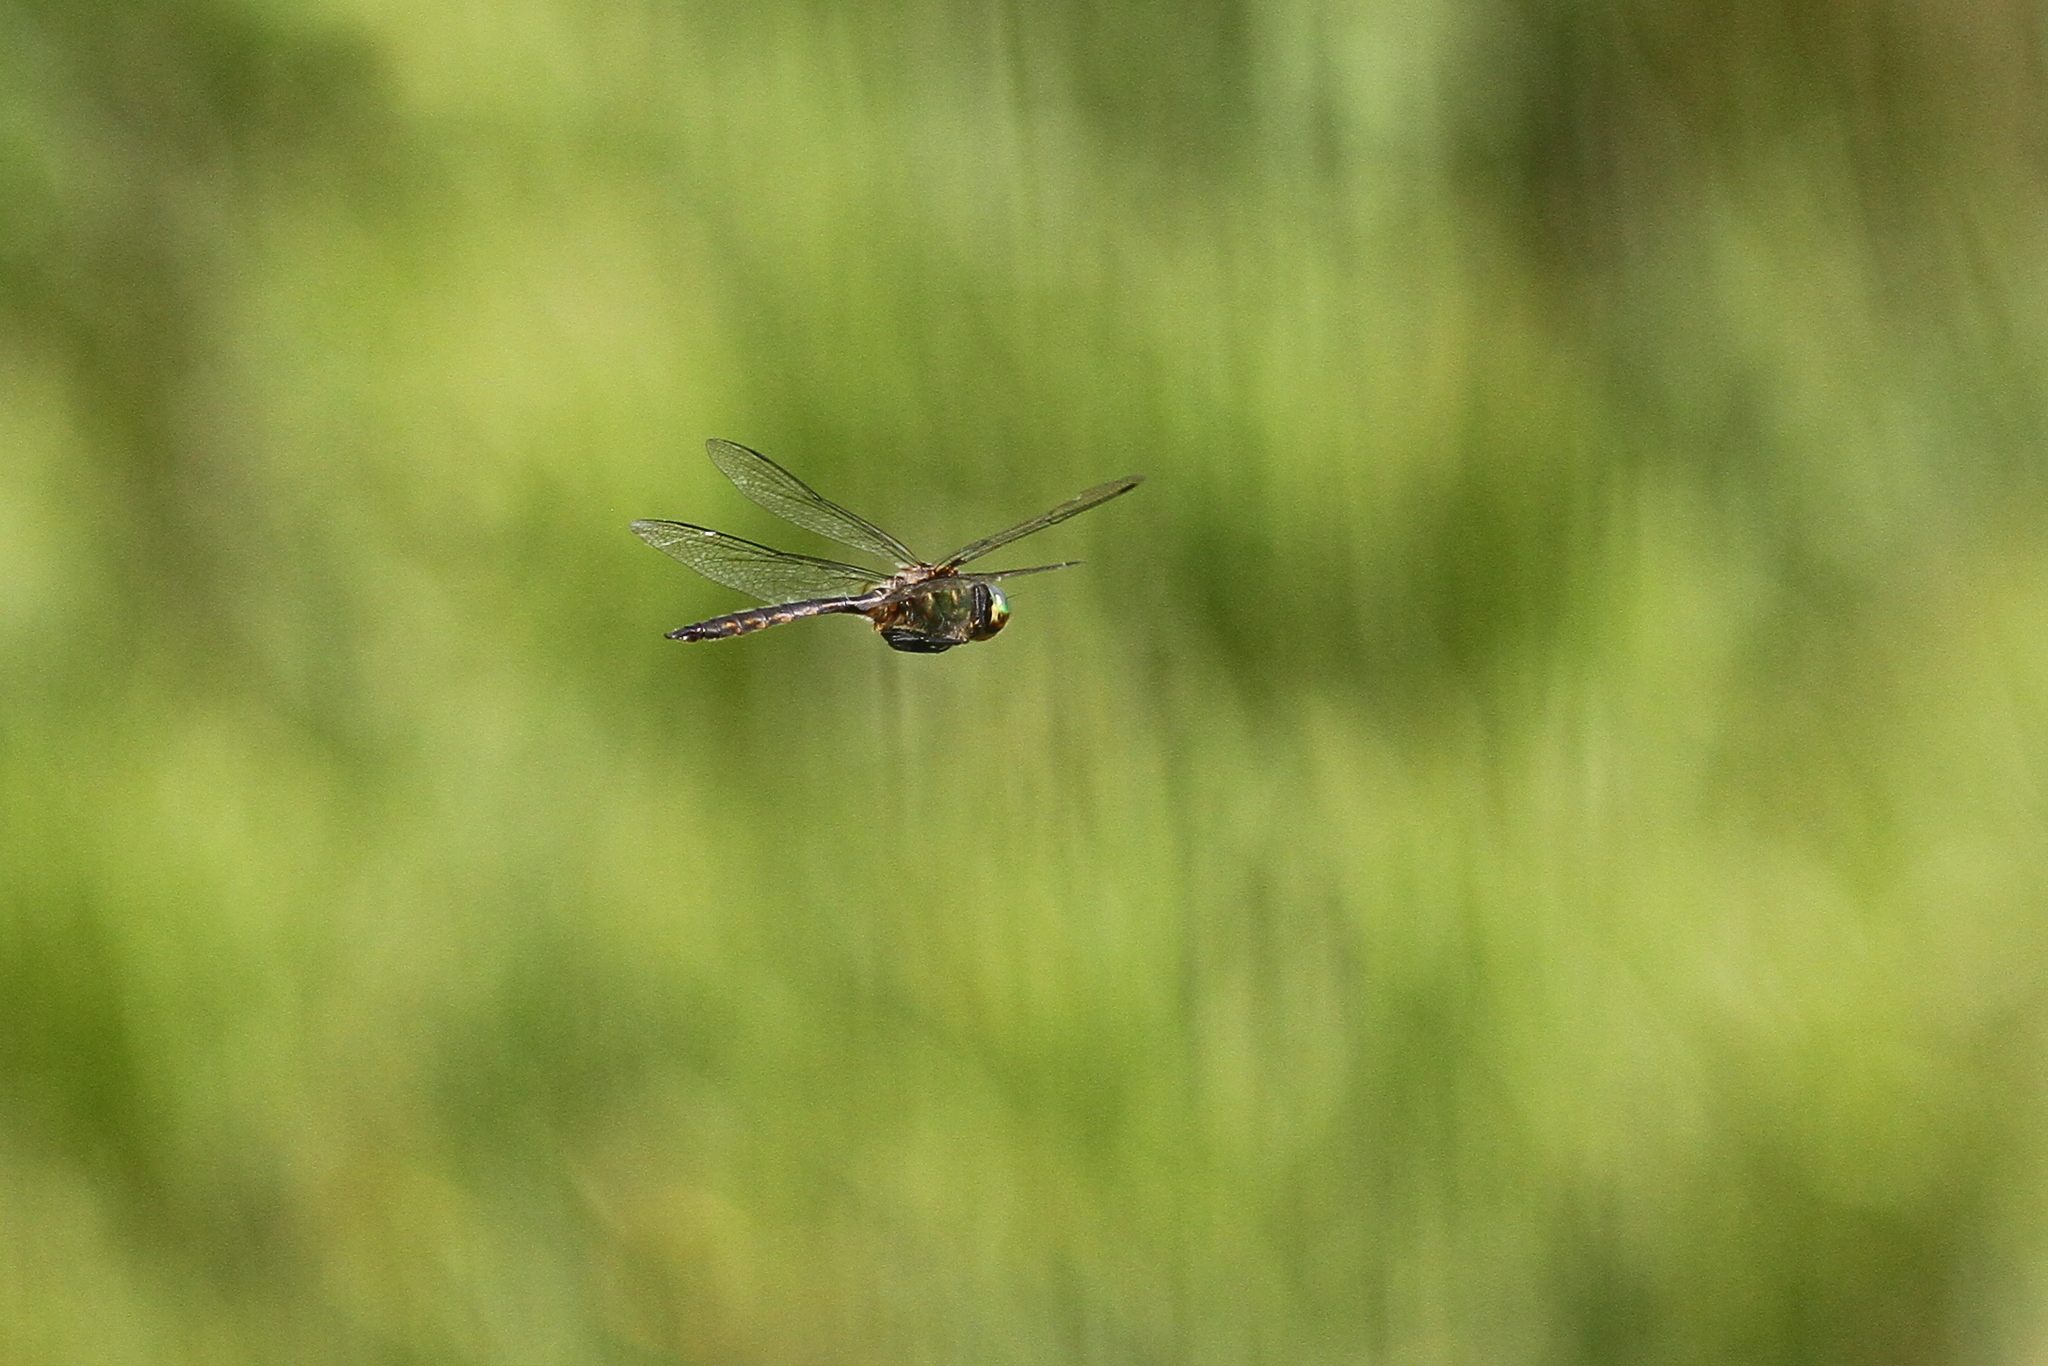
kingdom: Animalia
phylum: Arthropoda
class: Insecta
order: Odonata
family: Corduliidae
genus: Somatochlora
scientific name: Somatochlora flavomaculata
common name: Yellow-spotted emerald
